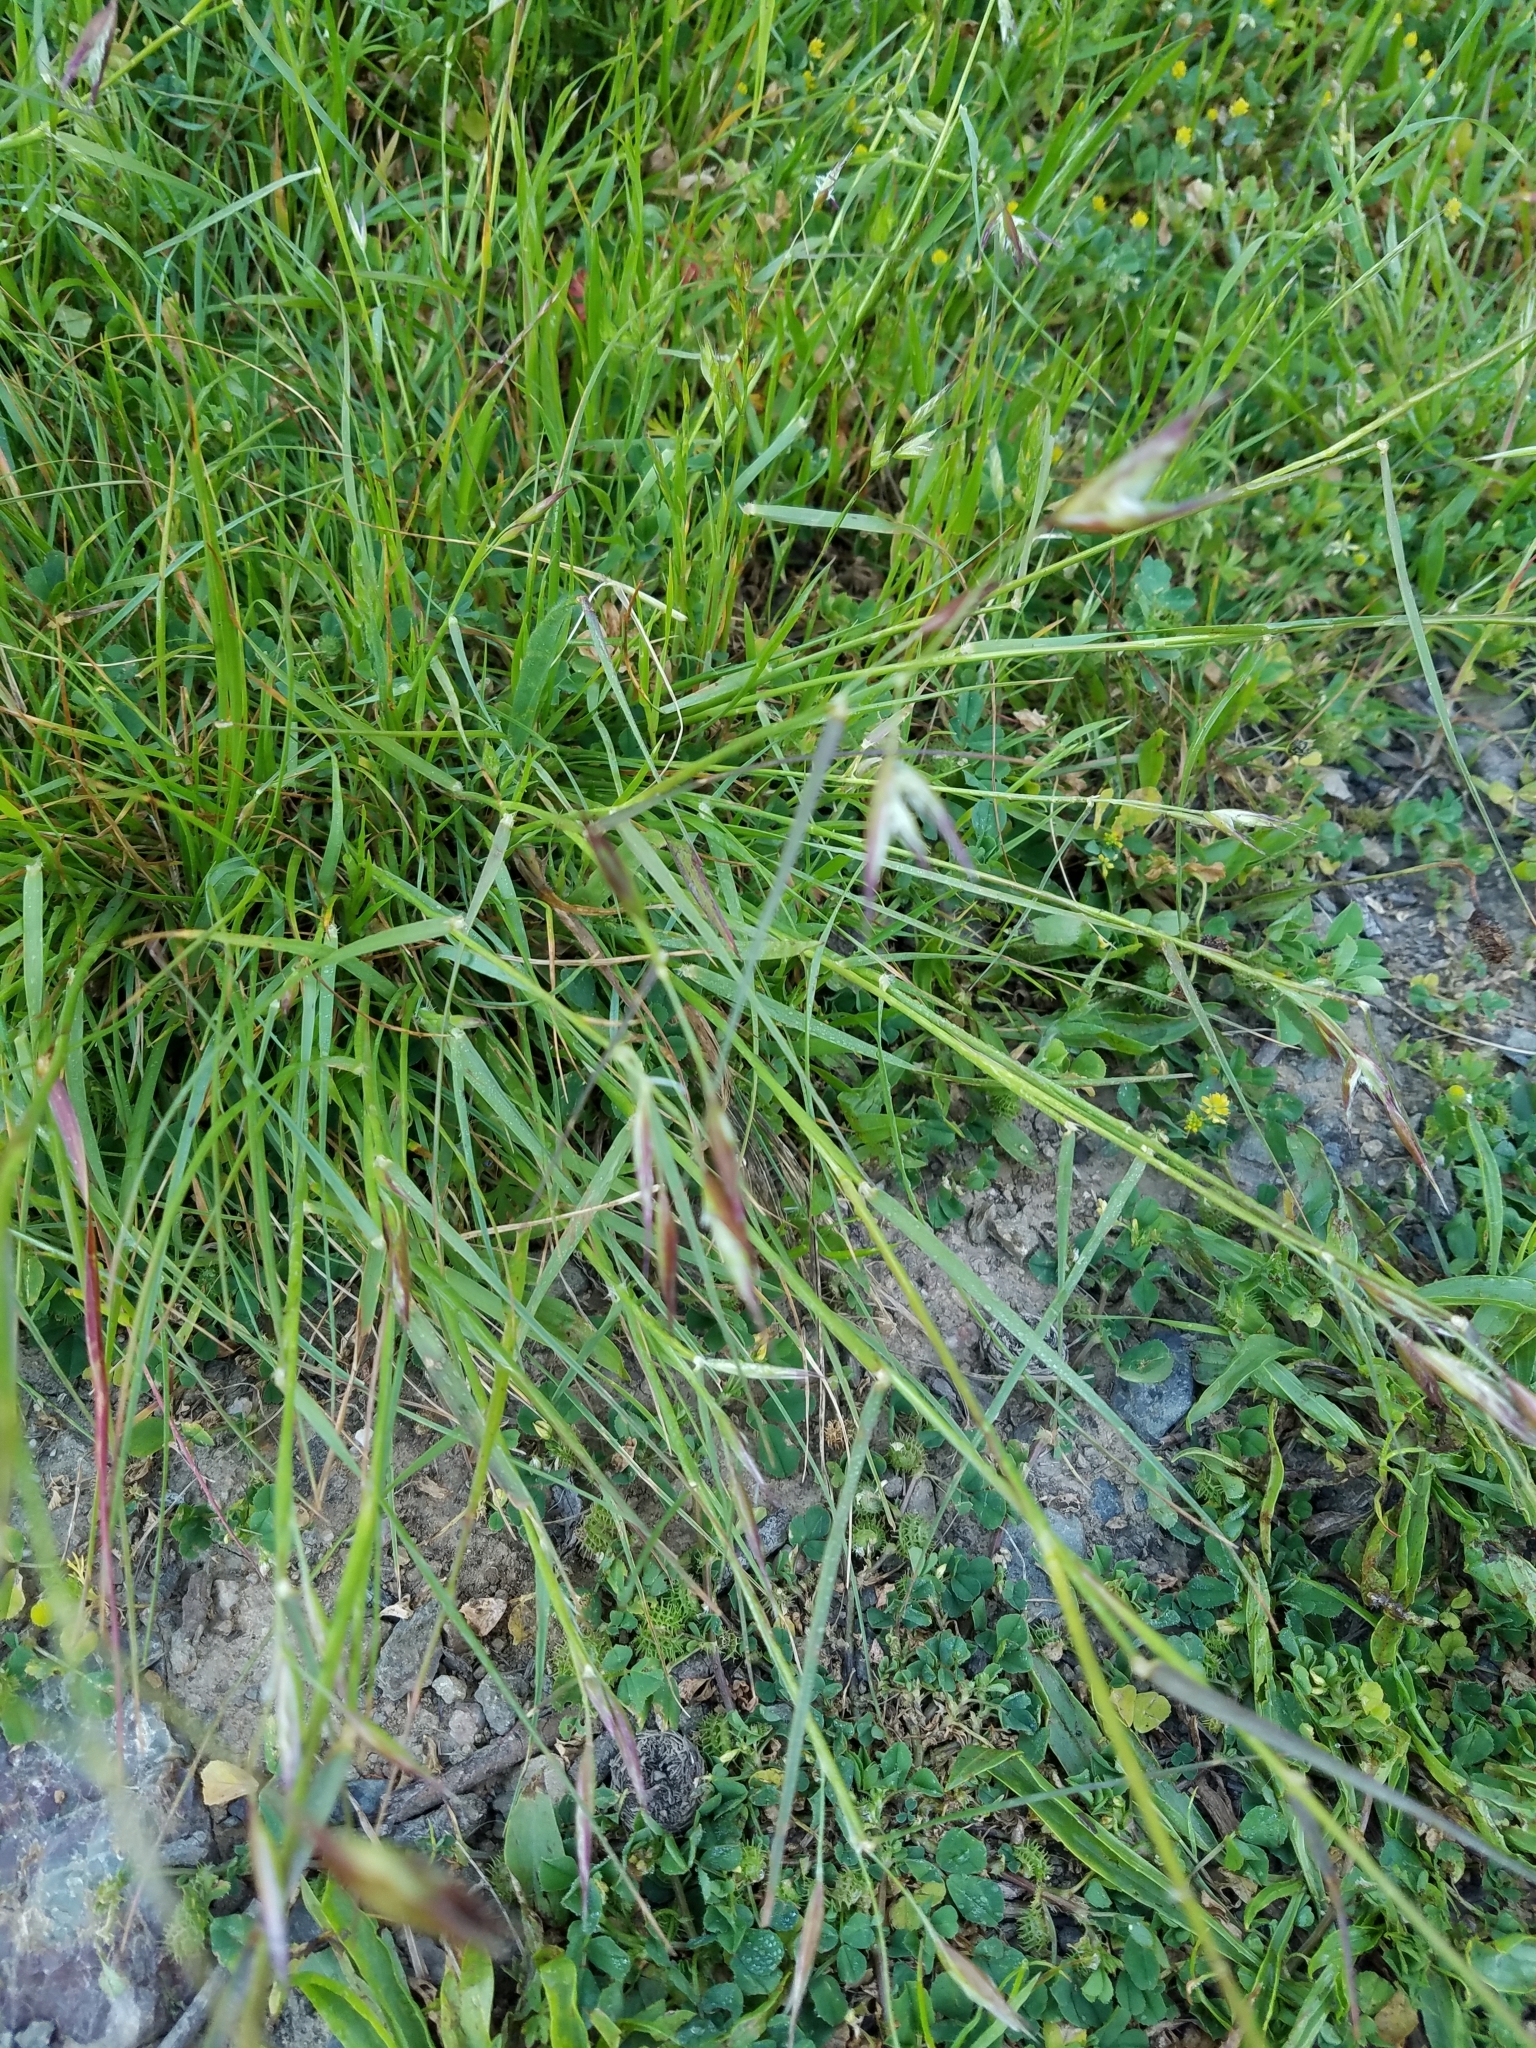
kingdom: Plantae
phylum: Tracheophyta
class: Liliopsida
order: Poales
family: Poaceae
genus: Danthonia
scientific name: Danthonia californica
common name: California oat grass
